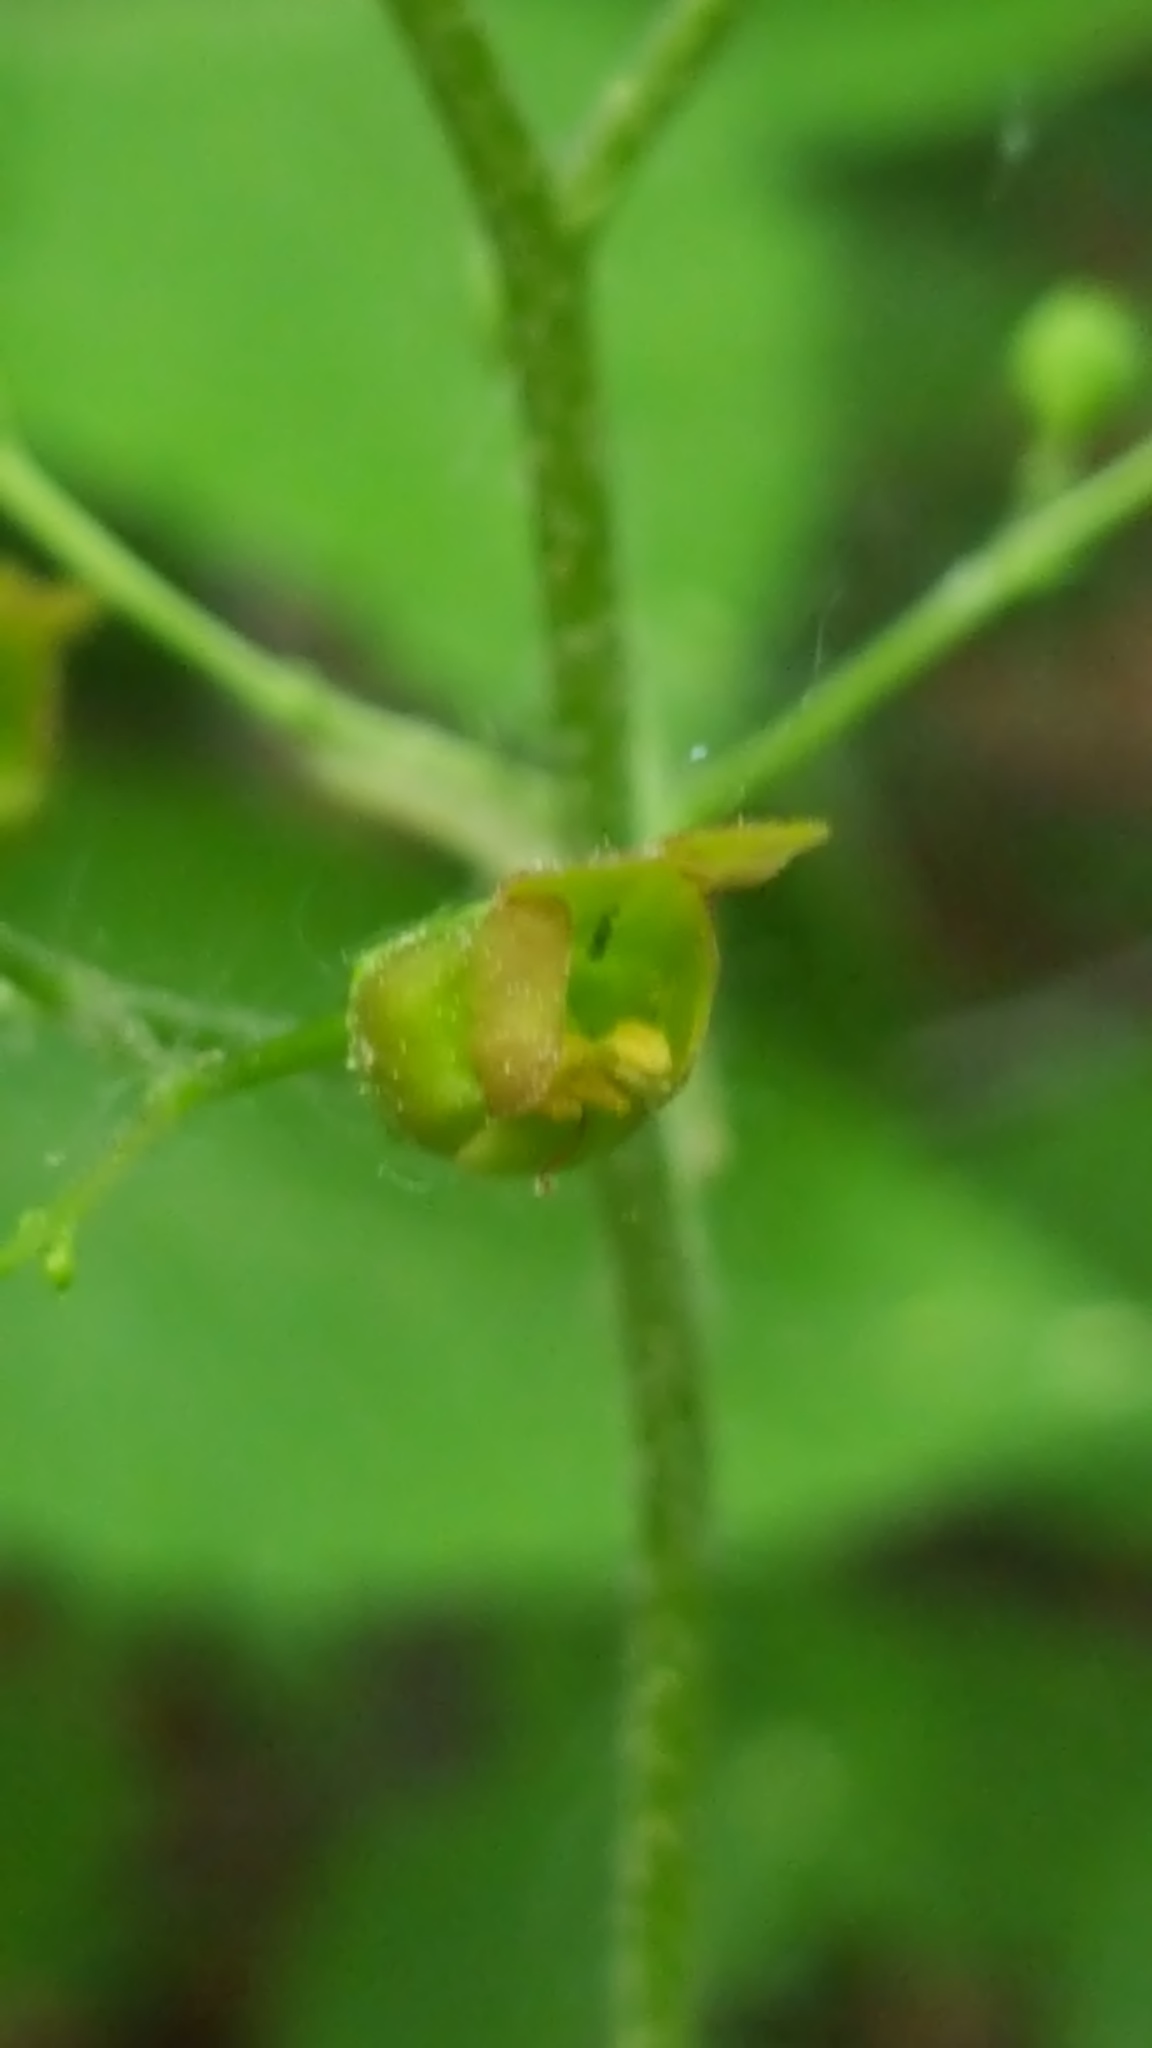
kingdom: Plantae
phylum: Tracheophyta
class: Magnoliopsida
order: Lamiales
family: Scrophulariaceae
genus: Scrophularia
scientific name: Scrophularia lanceolata
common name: American figwort
